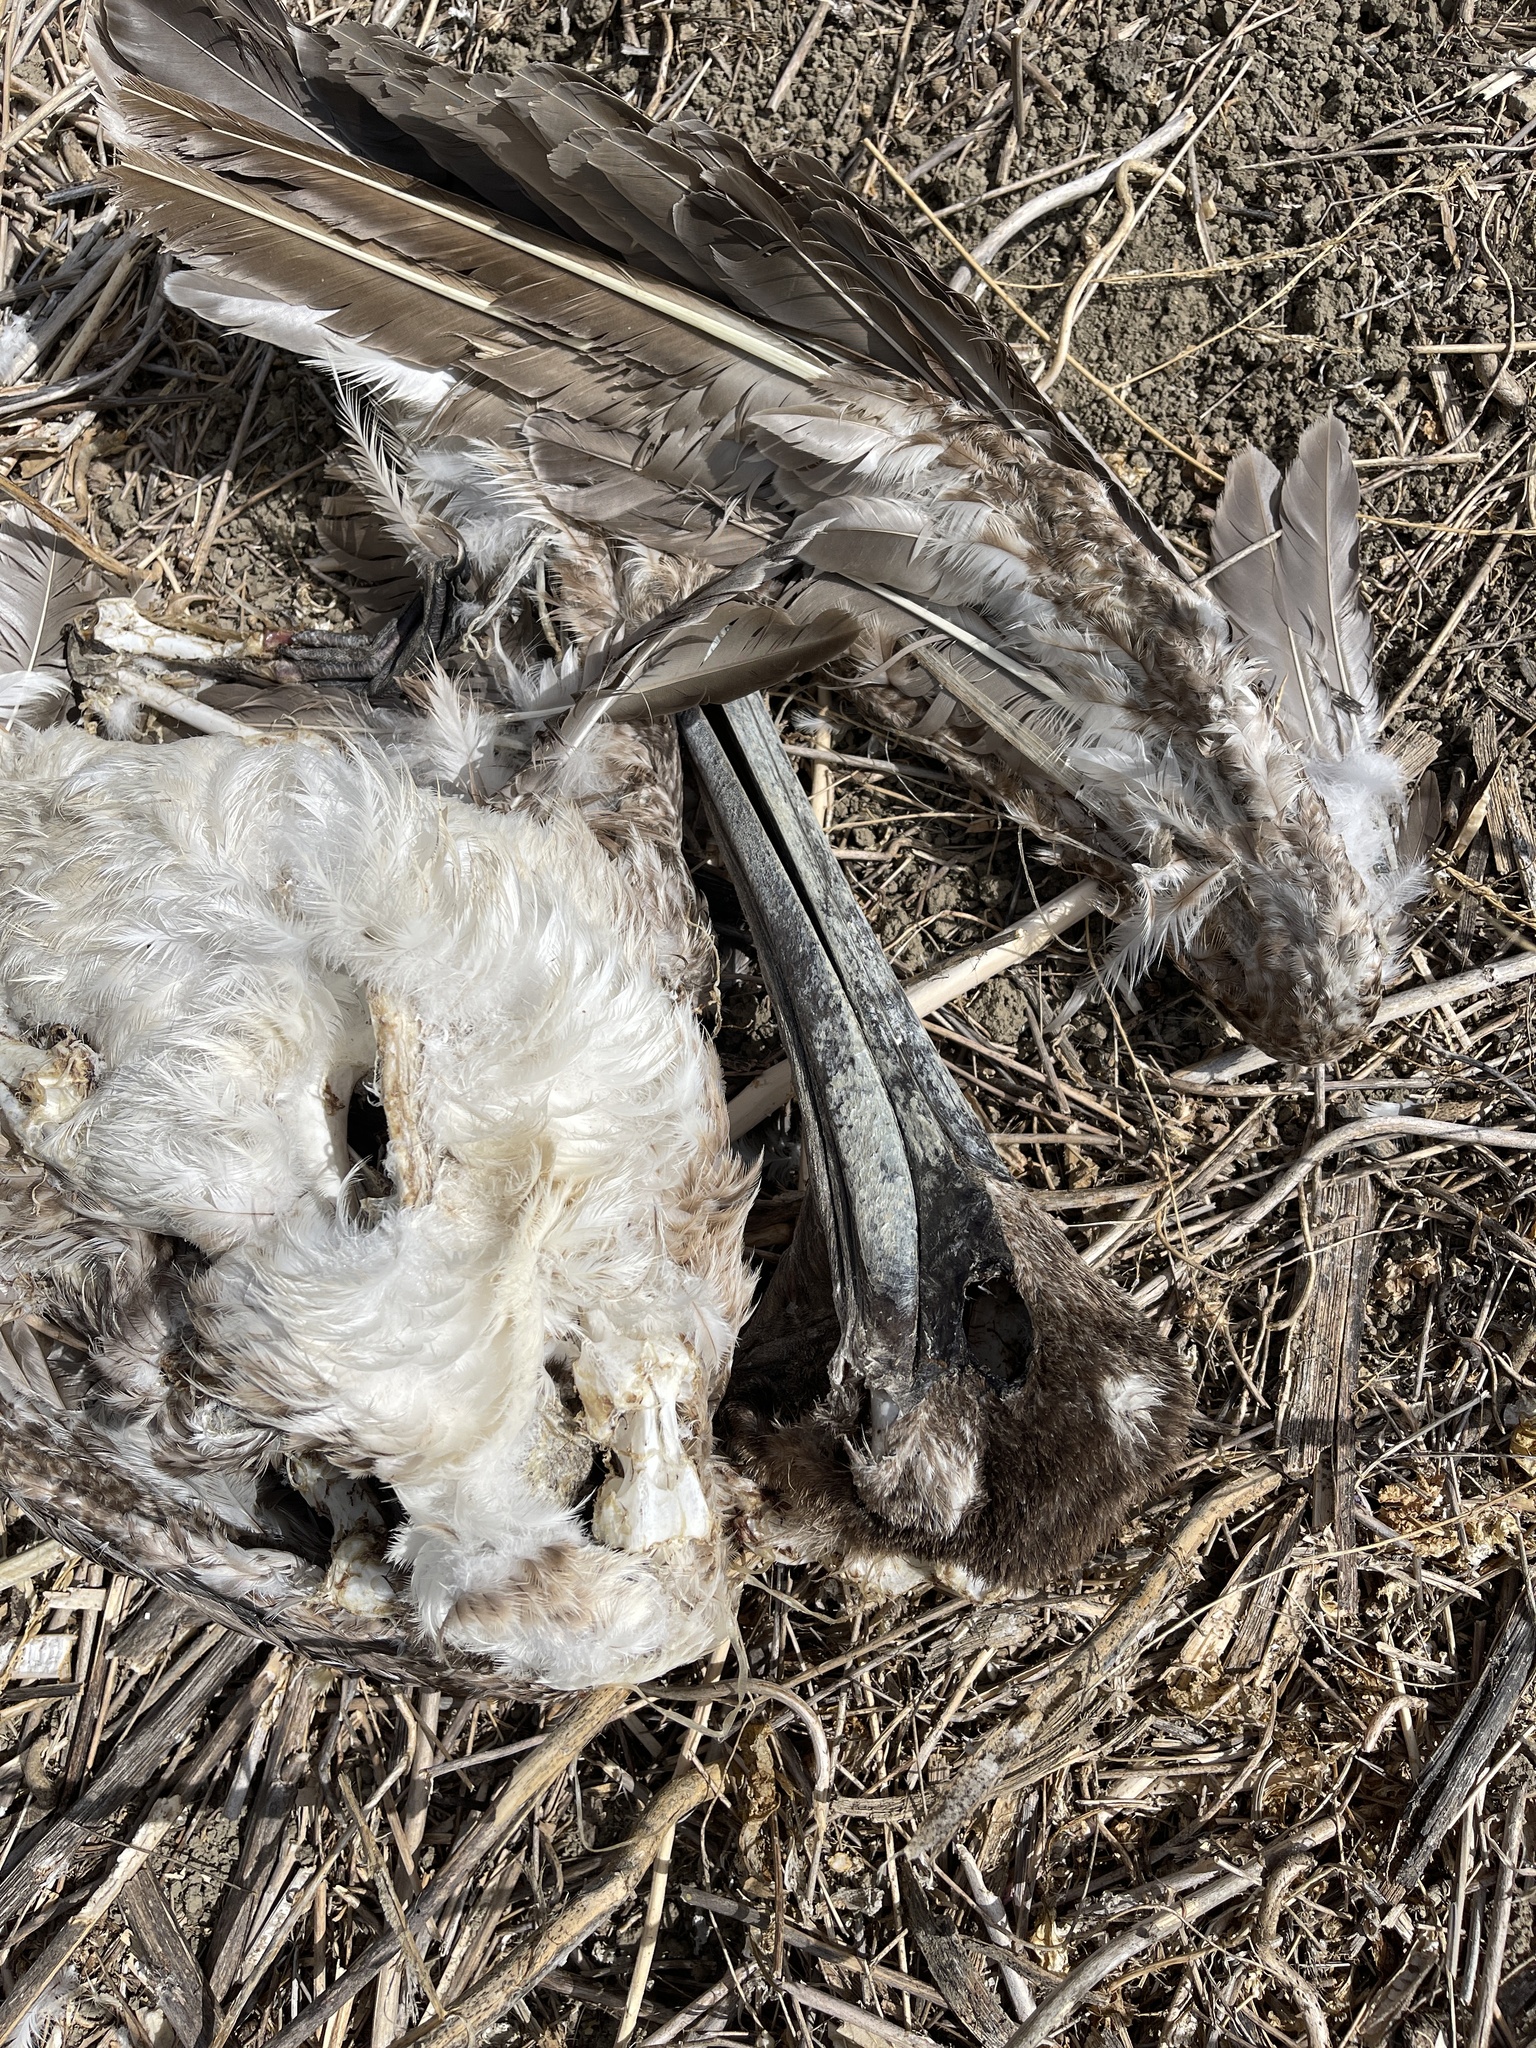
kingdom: Animalia
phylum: Chordata
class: Aves
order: Pelecaniformes
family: Pelecanidae
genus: Pelecanus
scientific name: Pelecanus occidentalis
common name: Brown pelican
